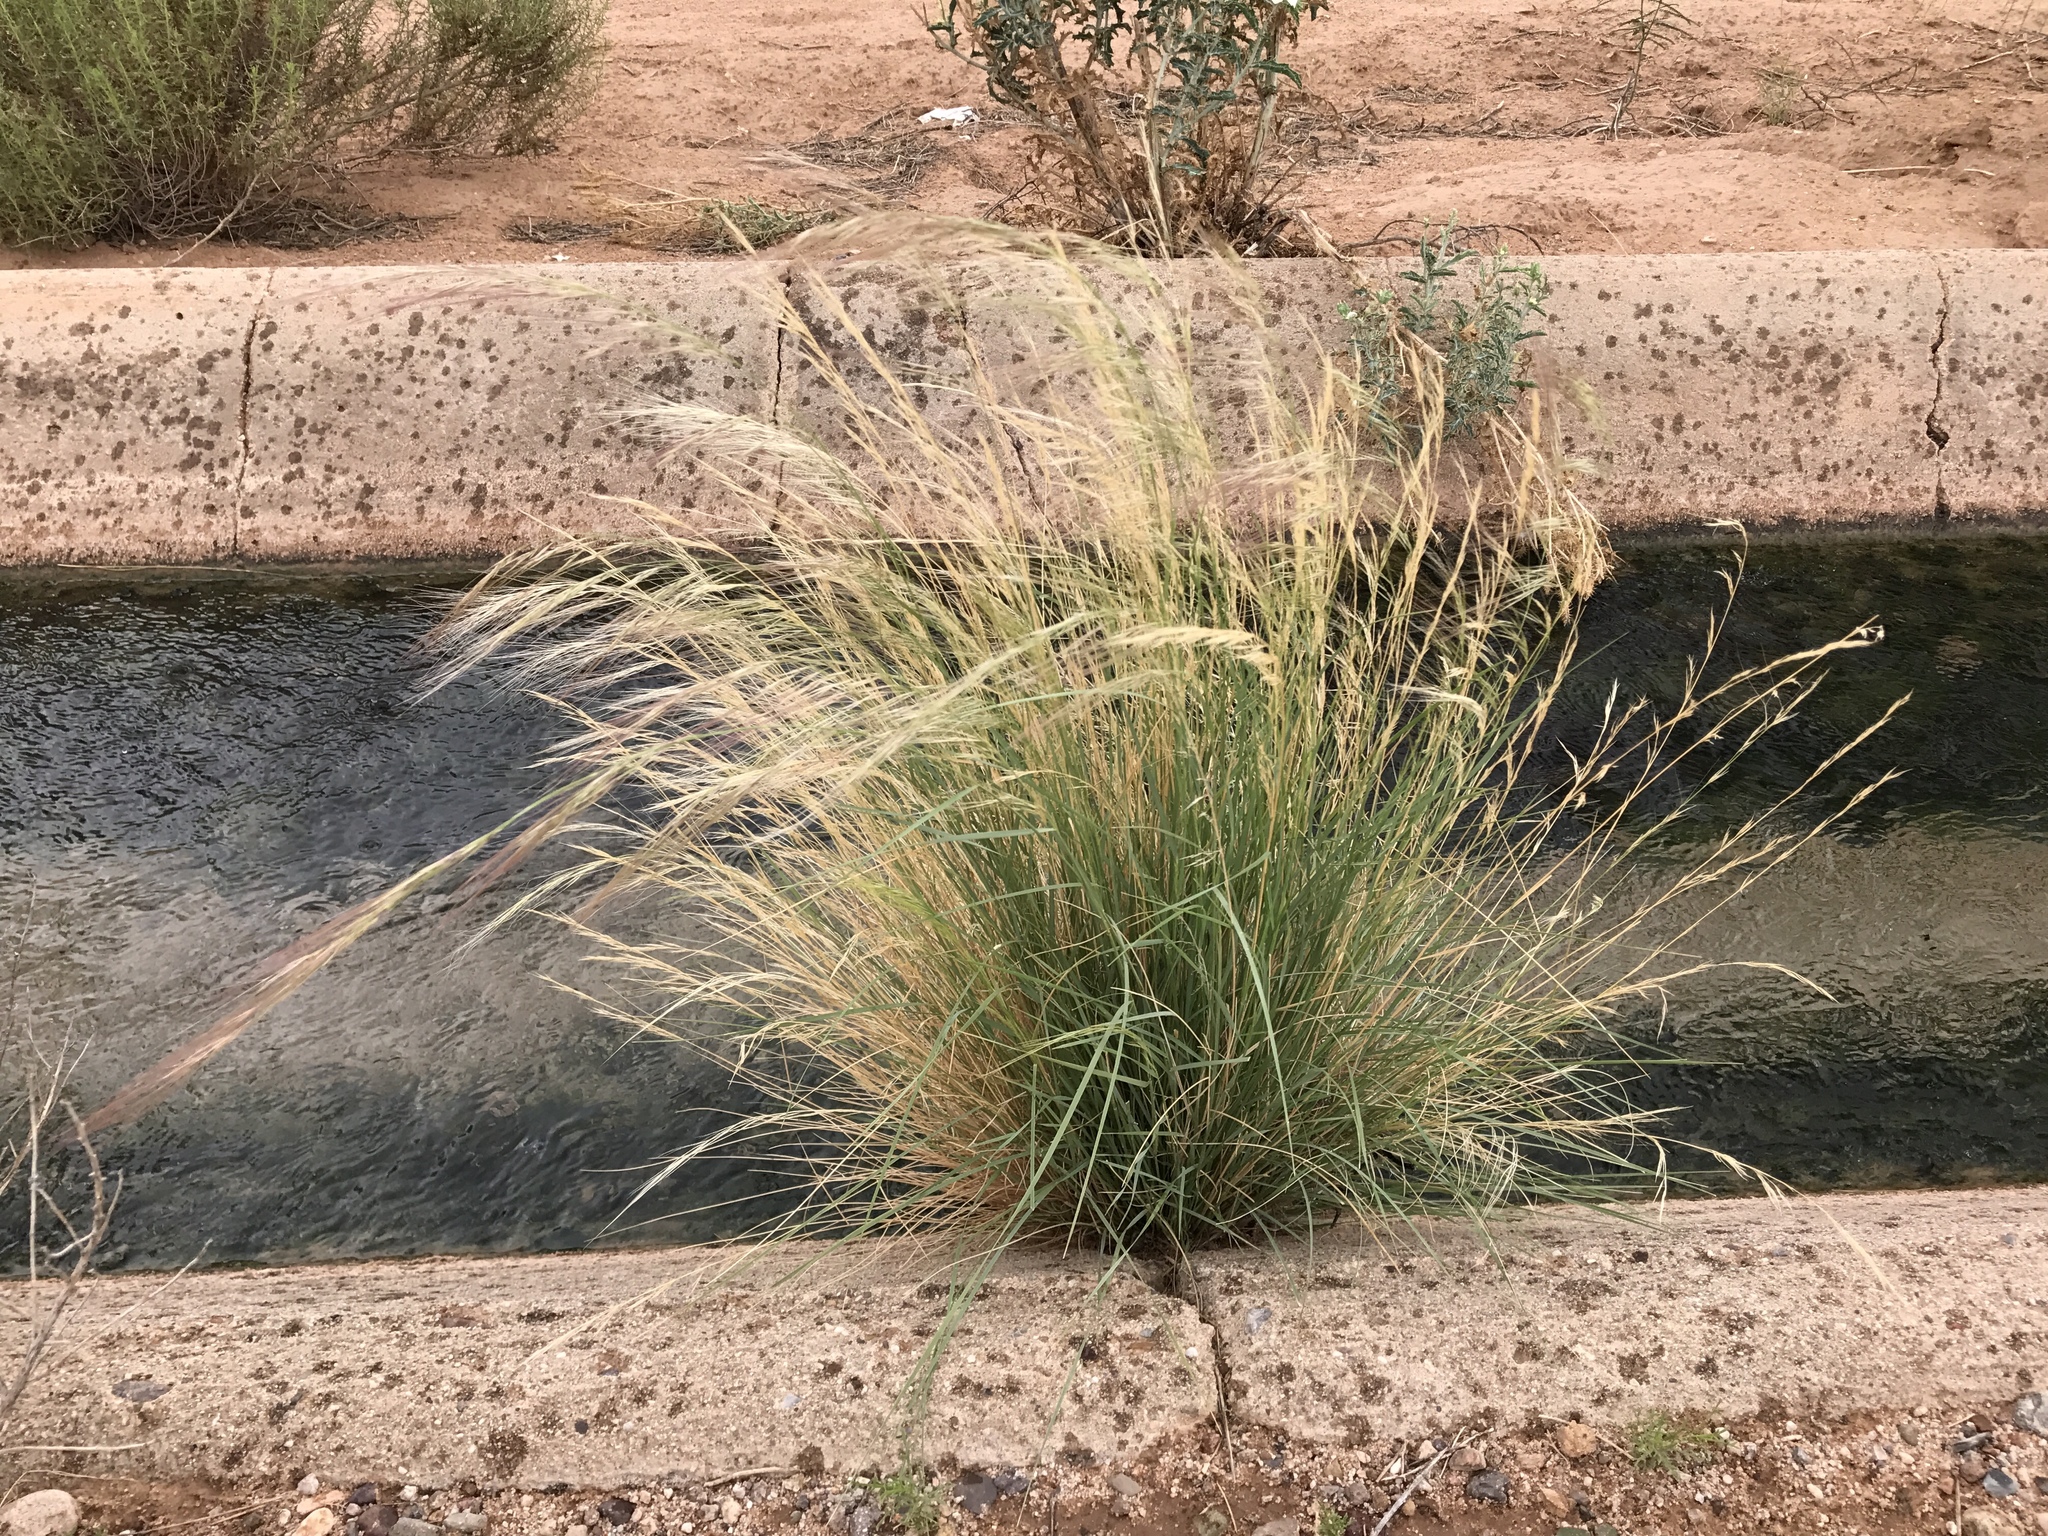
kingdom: Plantae
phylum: Tracheophyta
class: Liliopsida
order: Poales
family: Poaceae
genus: Aristida
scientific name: Aristida purpurea
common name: Purple threeawn
